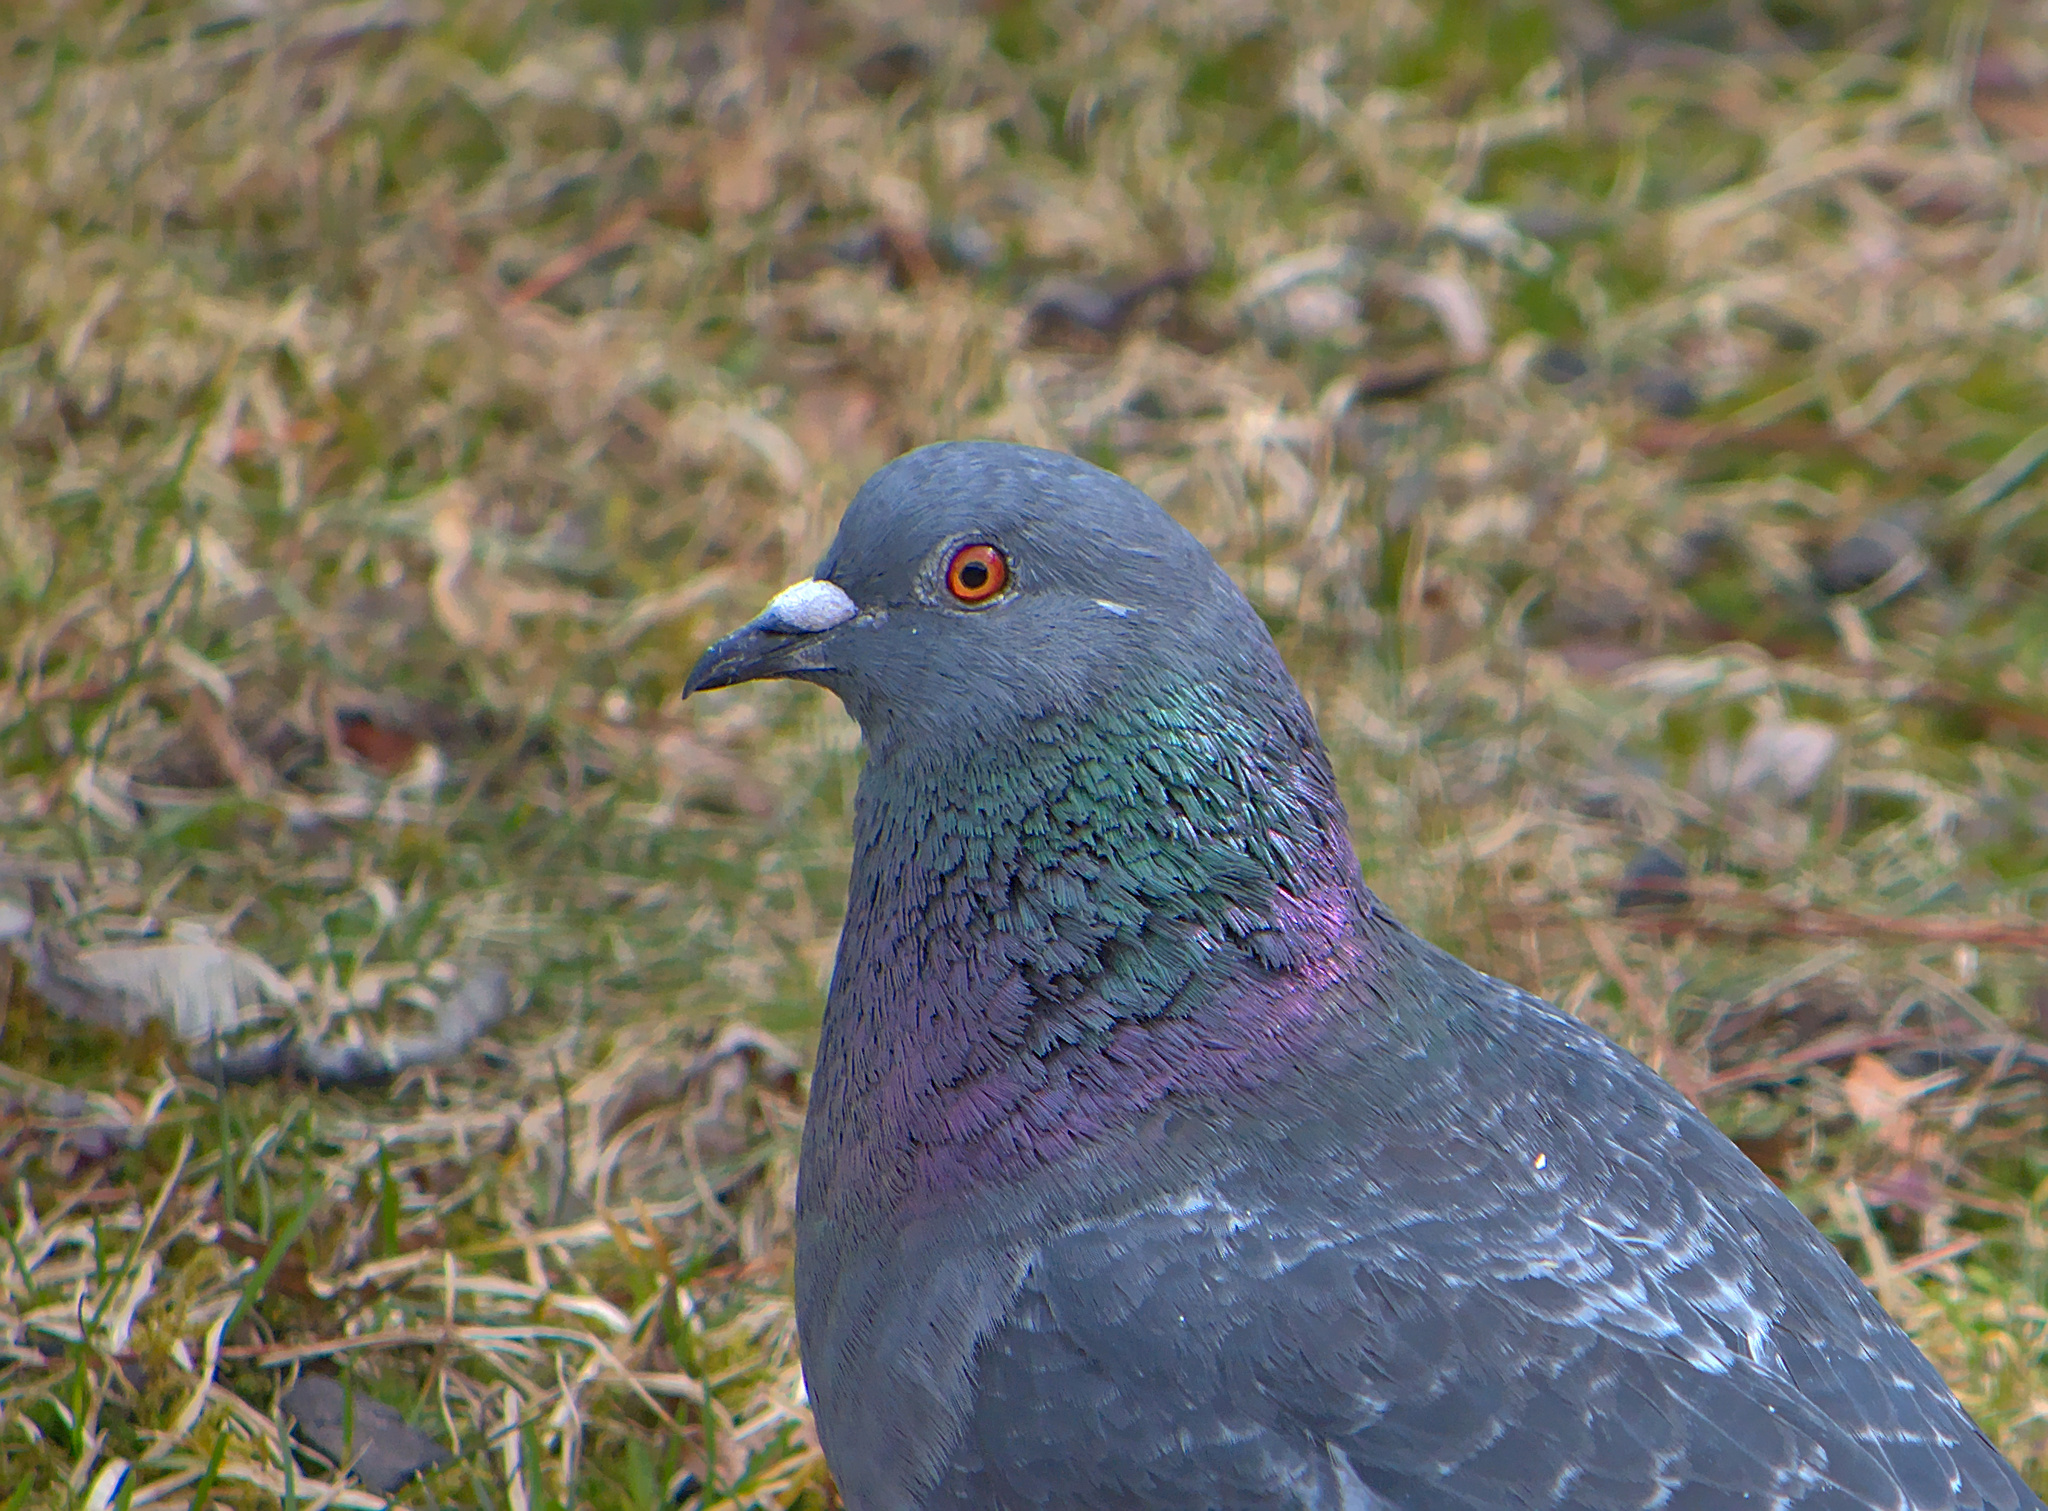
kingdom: Animalia
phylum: Chordata
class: Aves
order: Columbiformes
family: Columbidae
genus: Columba
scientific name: Columba livia
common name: Rock pigeon
